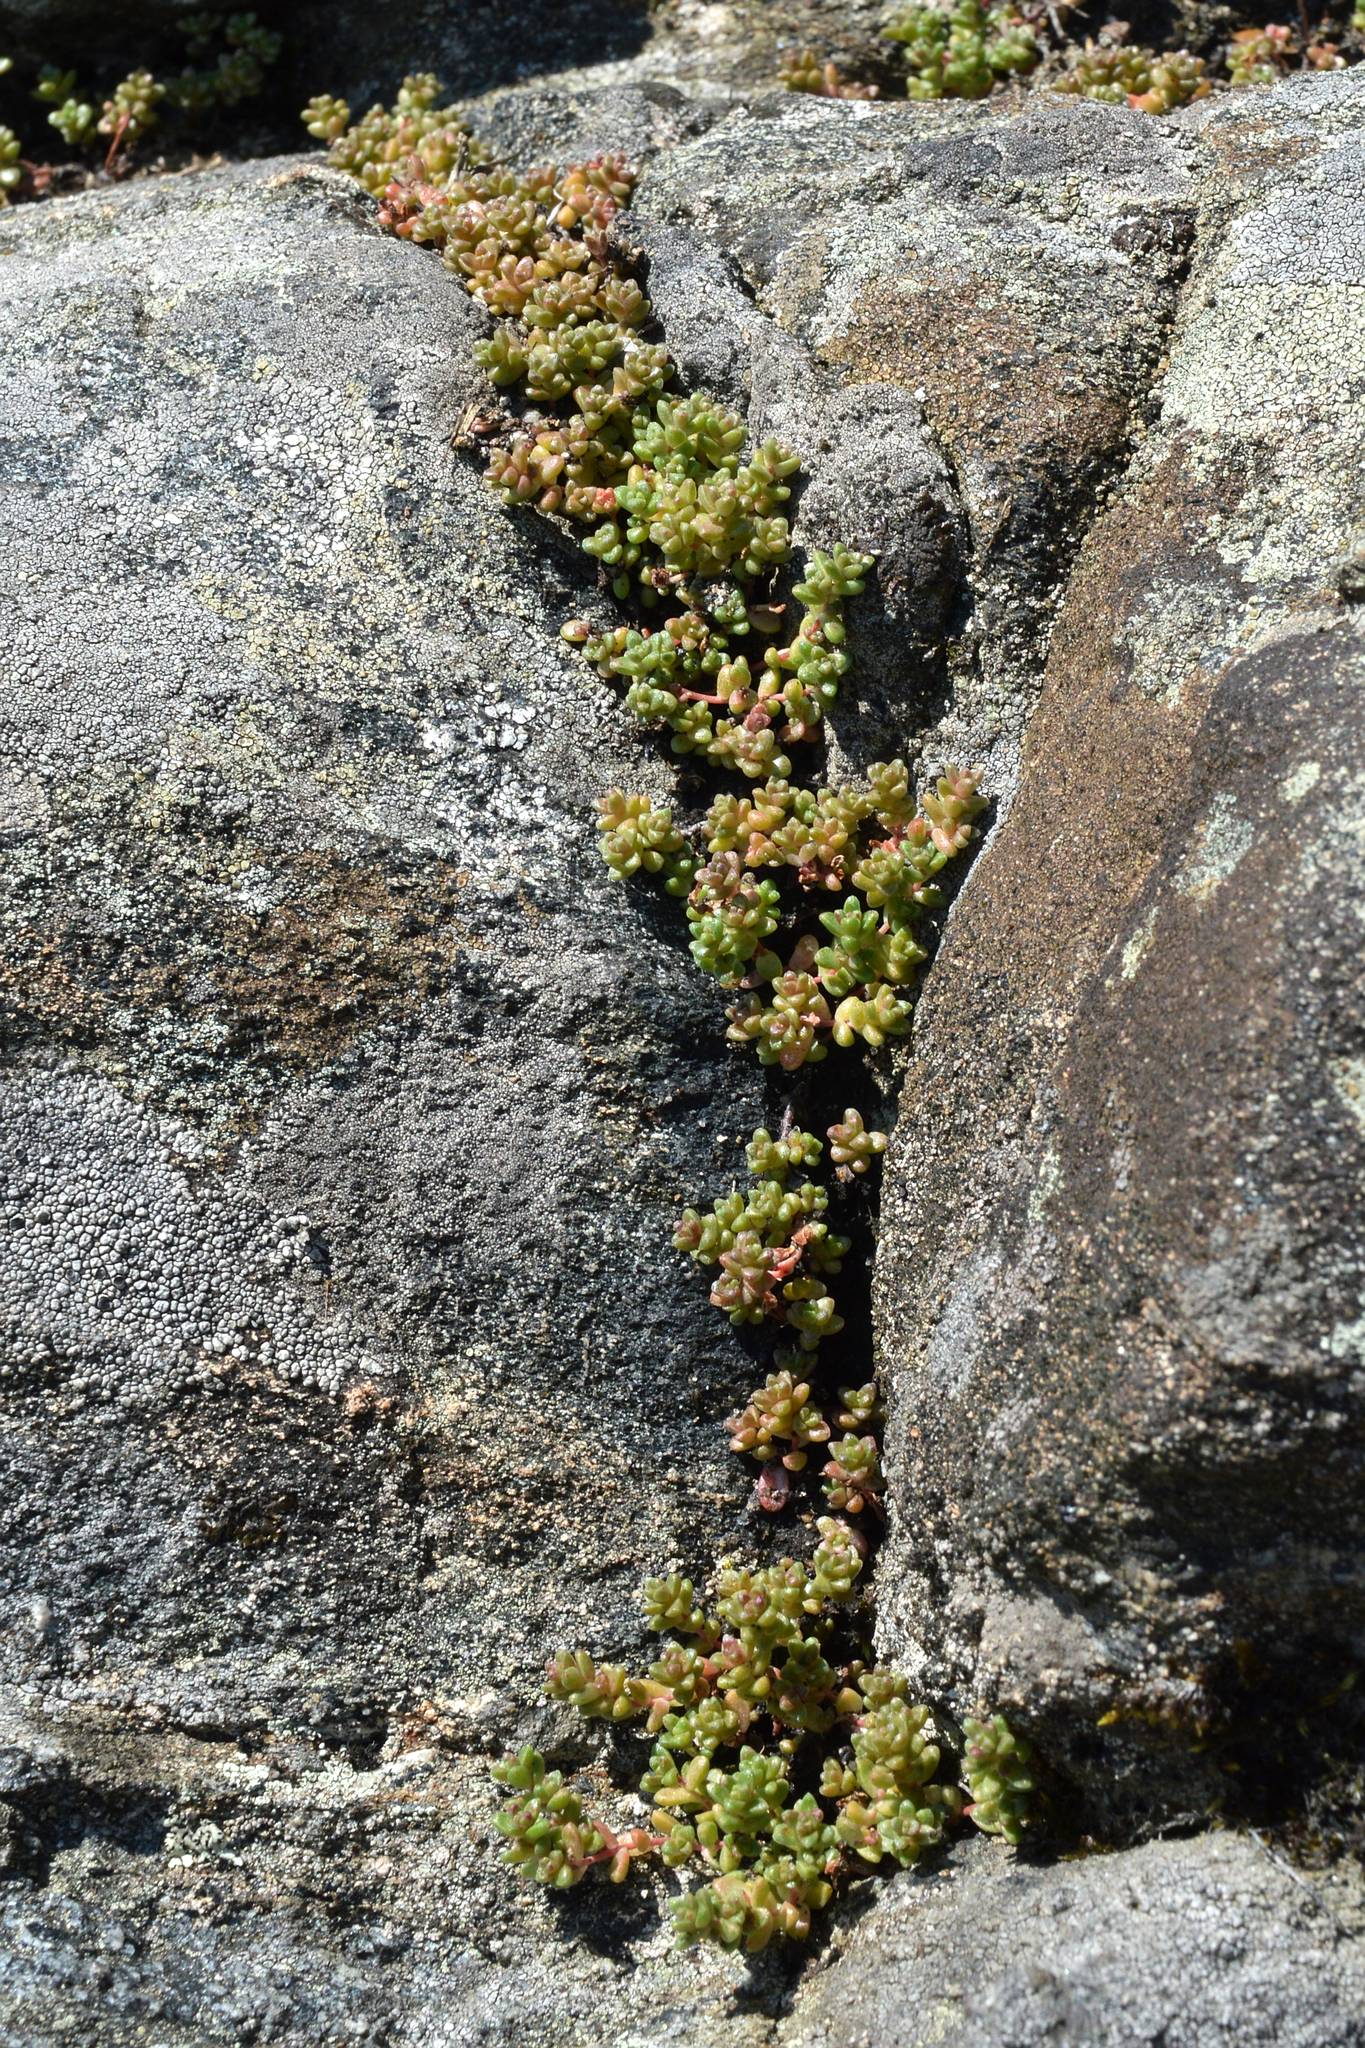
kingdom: Plantae
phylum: Tracheophyta
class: Magnoliopsida
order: Saxifragales
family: Crassulaceae
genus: Sedum
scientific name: Sedum anglicum
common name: English stonecrop
